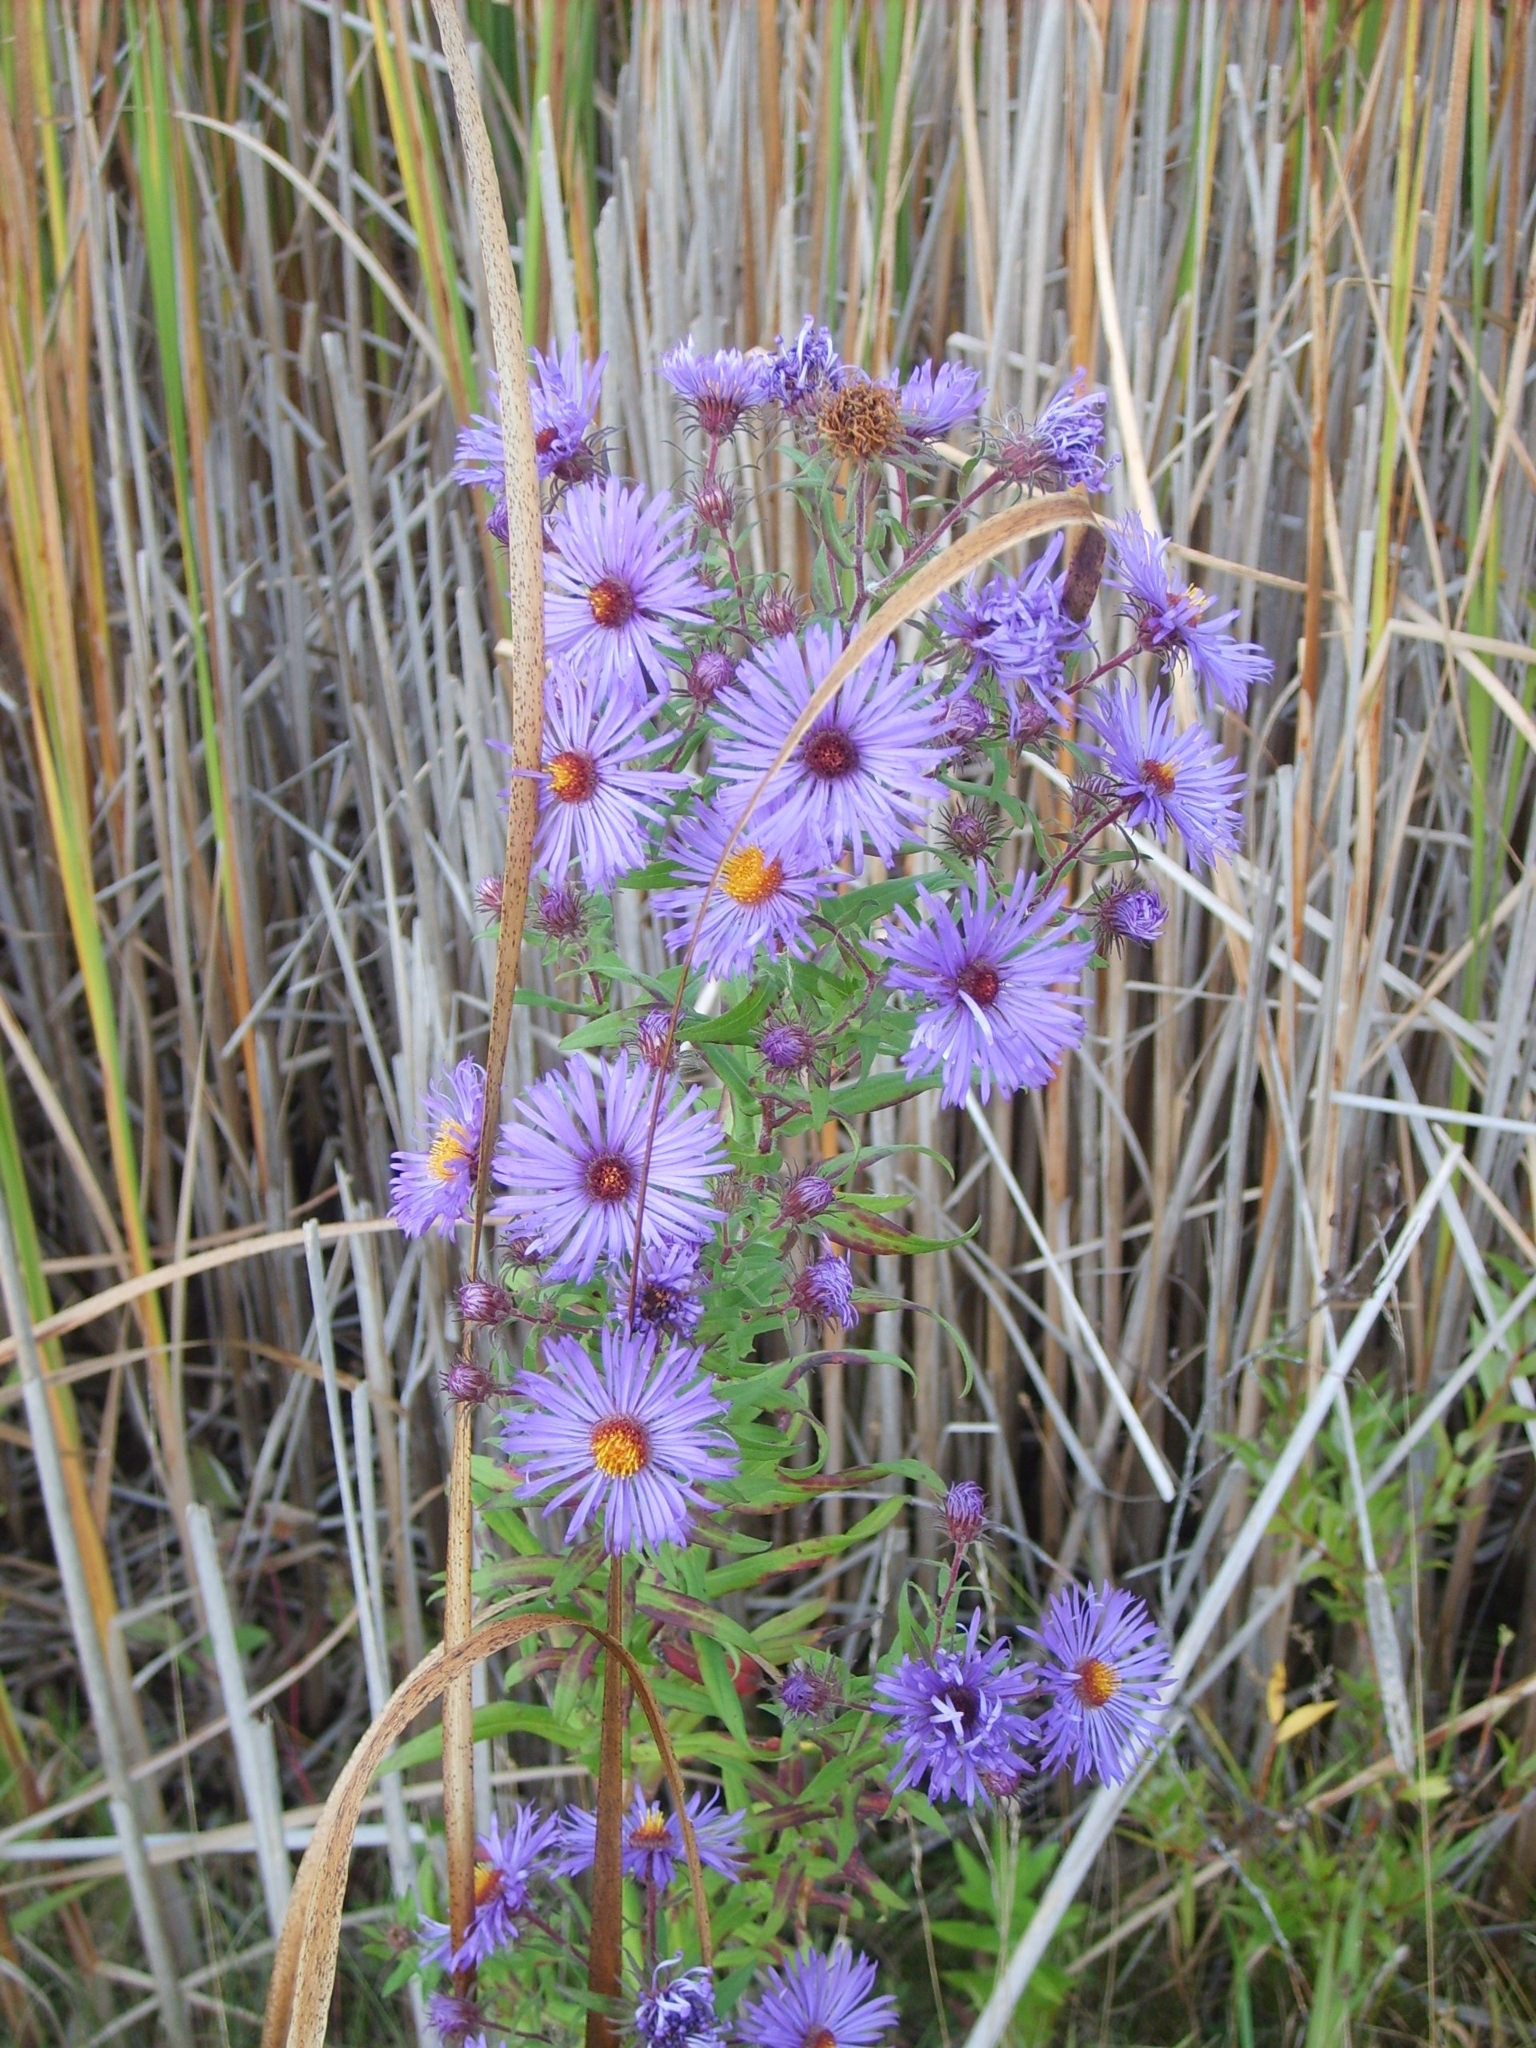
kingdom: Plantae
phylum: Tracheophyta
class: Magnoliopsida
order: Asterales
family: Asteraceae
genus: Symphyotrichum
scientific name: Symphyotrichum novae-angliae
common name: Michaelmas daisy
